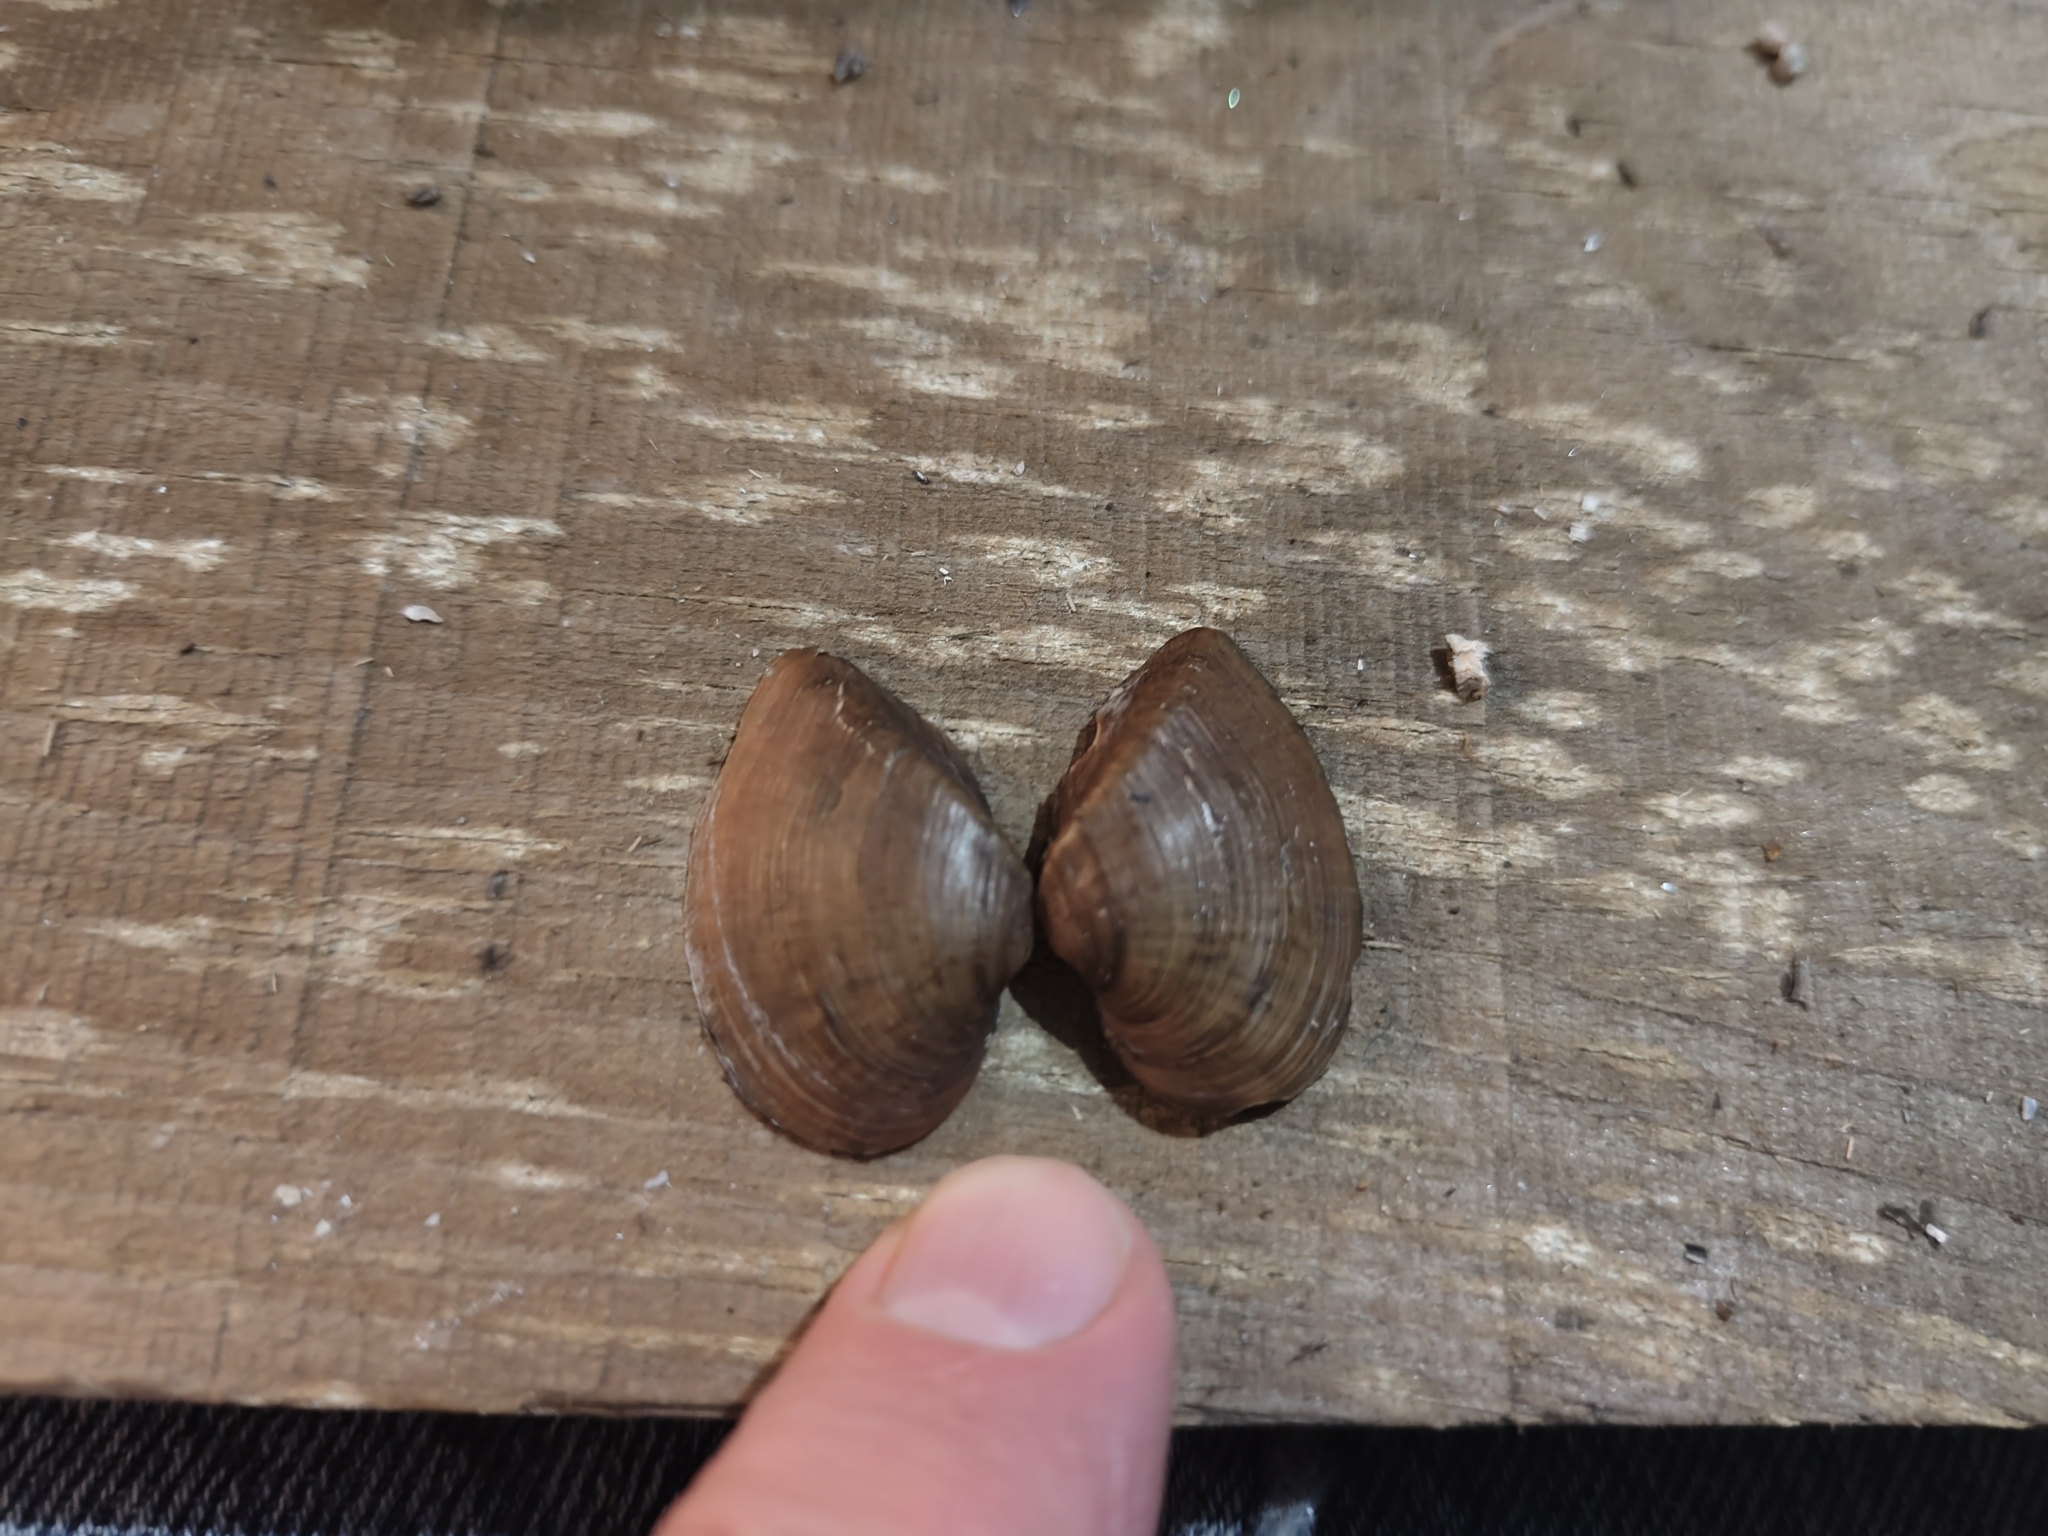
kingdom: Animalia
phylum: Mollusca
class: Bivalvia
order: Unionida
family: Unionidae
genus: Truncilla
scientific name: Truncilla truncata
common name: Deertoe
